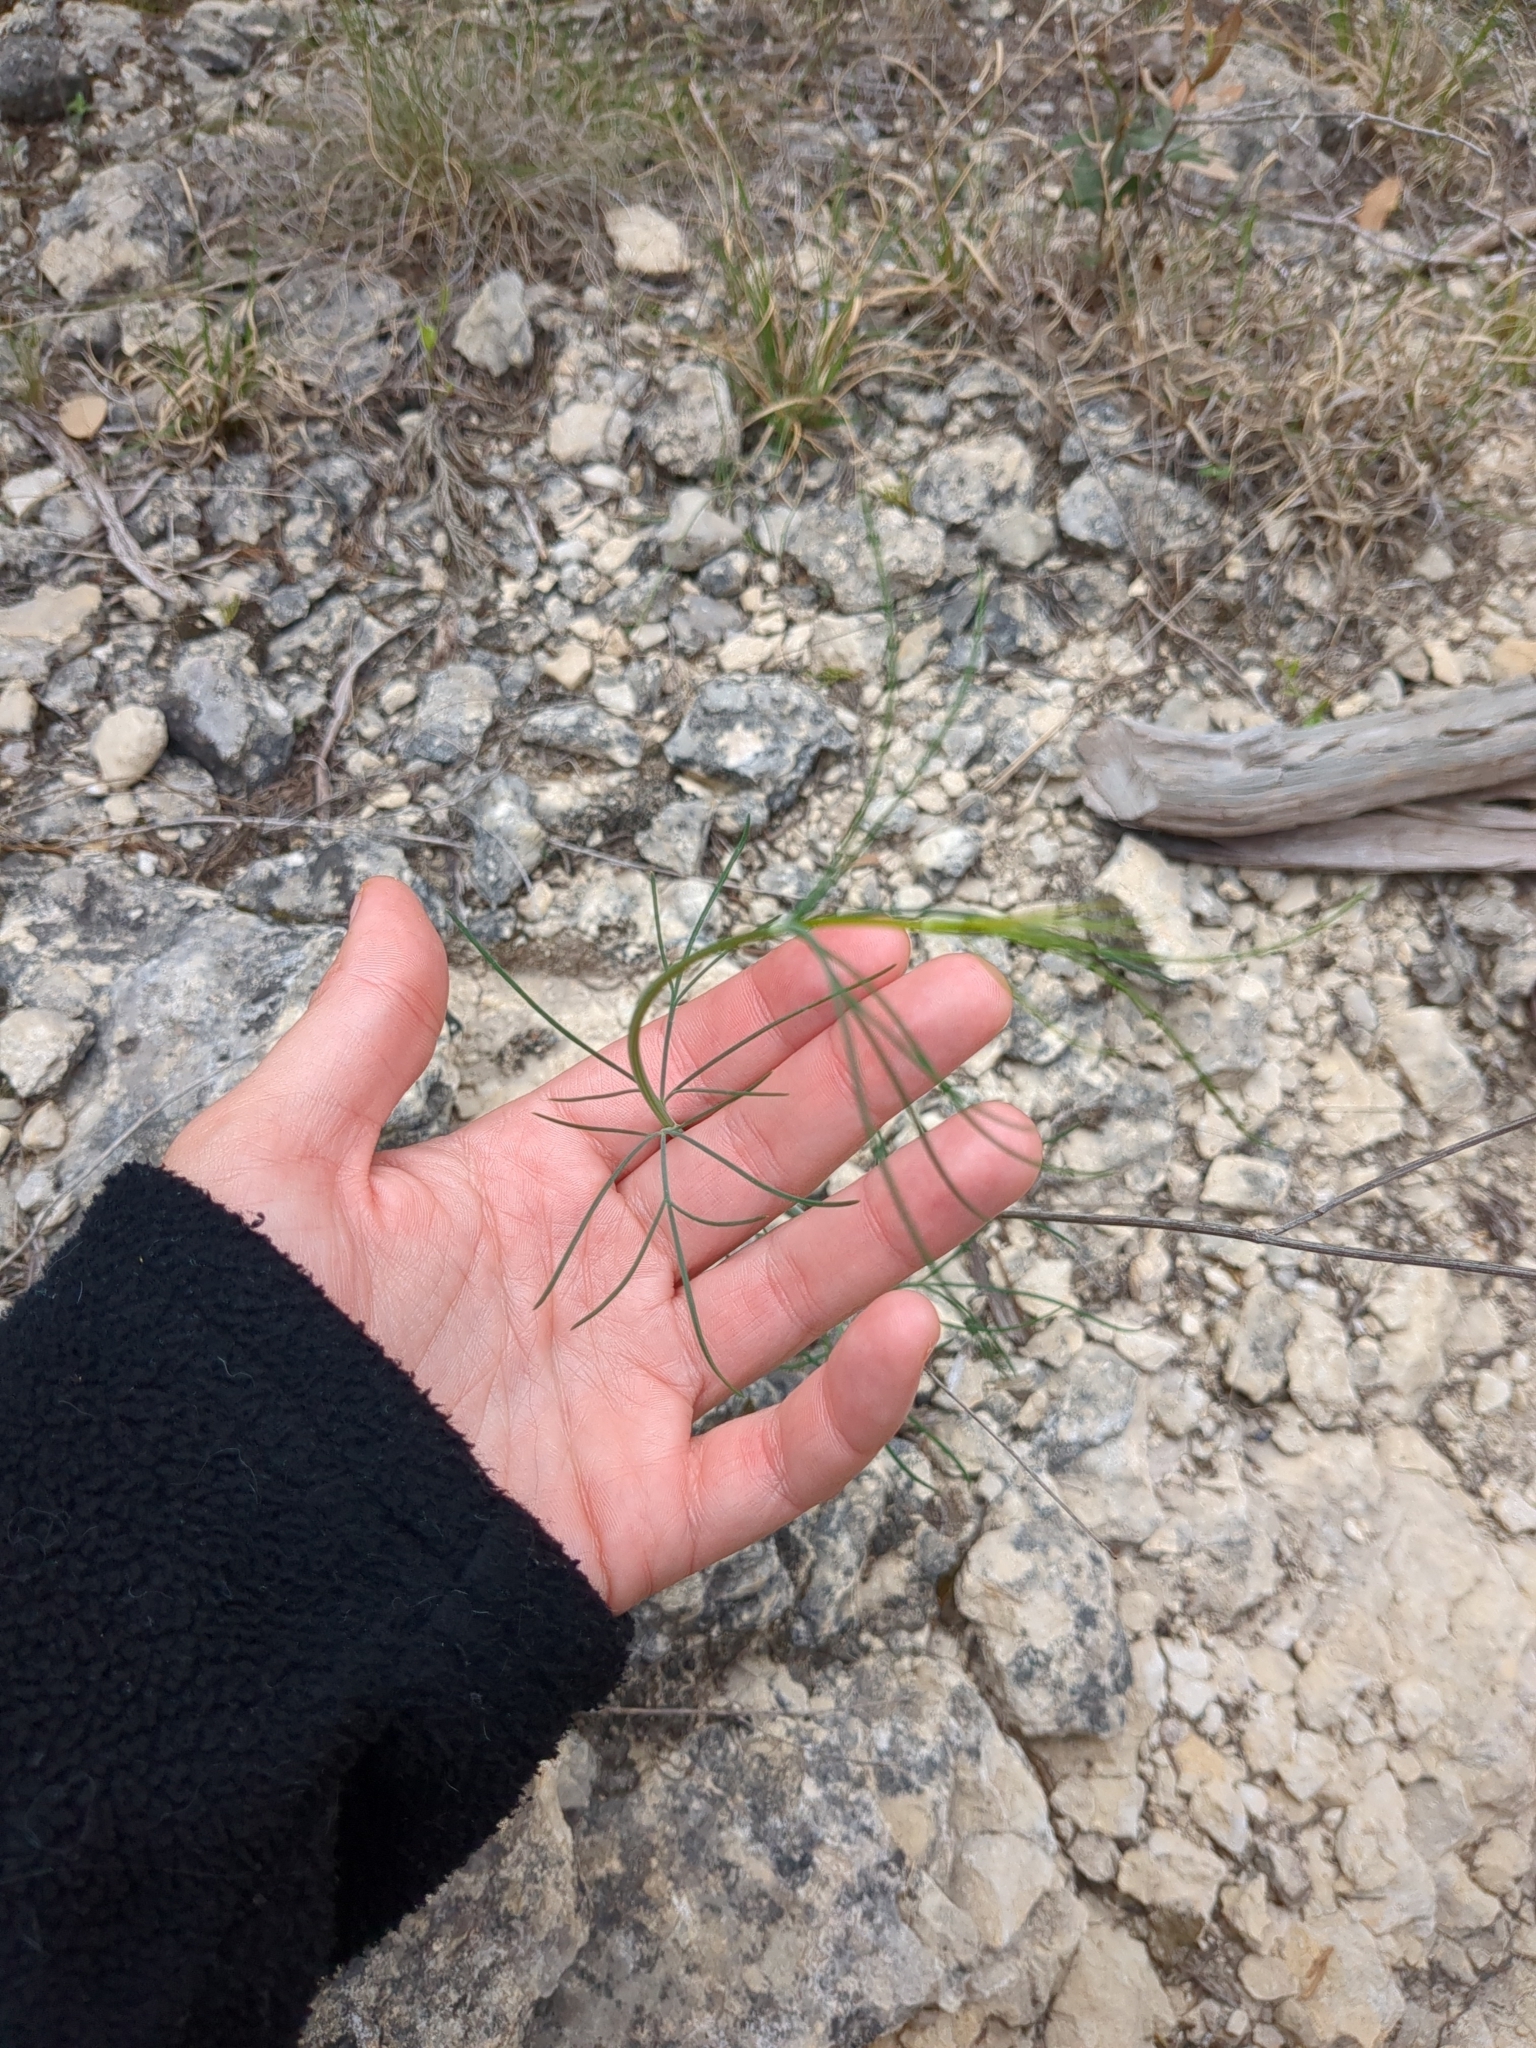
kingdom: Plantae
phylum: Tracheophyta
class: Magnoliopsida
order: Asterales
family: Asteraceae
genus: Thelesperma
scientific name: Thelesperma simplicifolium
